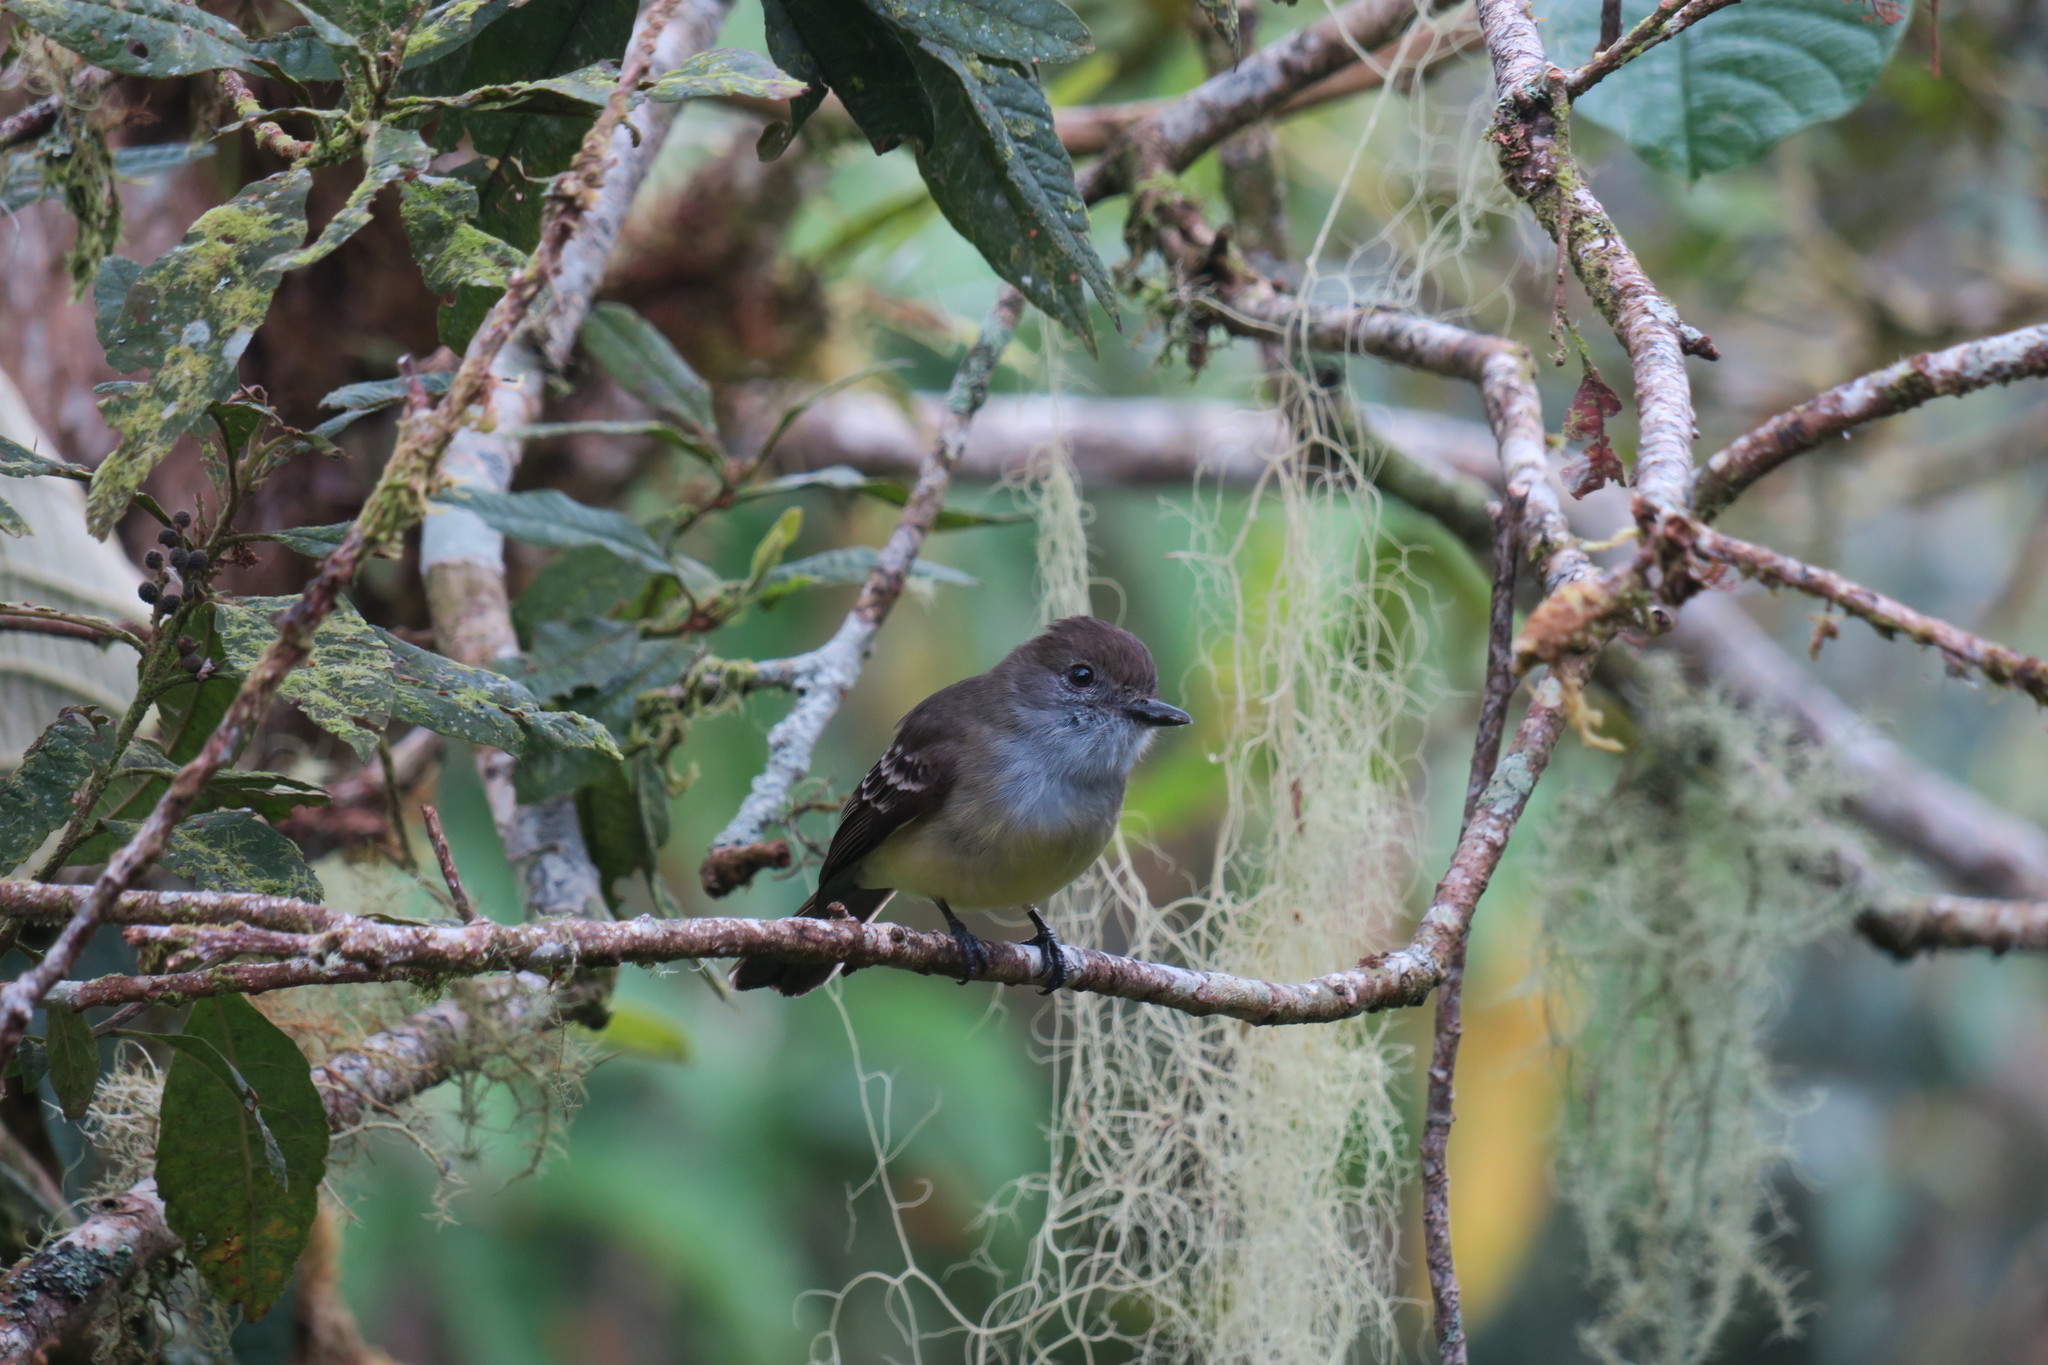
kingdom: Animalia
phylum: Chordata
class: Aves
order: Passeriformes
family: Tyrannidae
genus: Myiarchus
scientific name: Myiarchus cephalotes
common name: Pale-edged flycatcher
